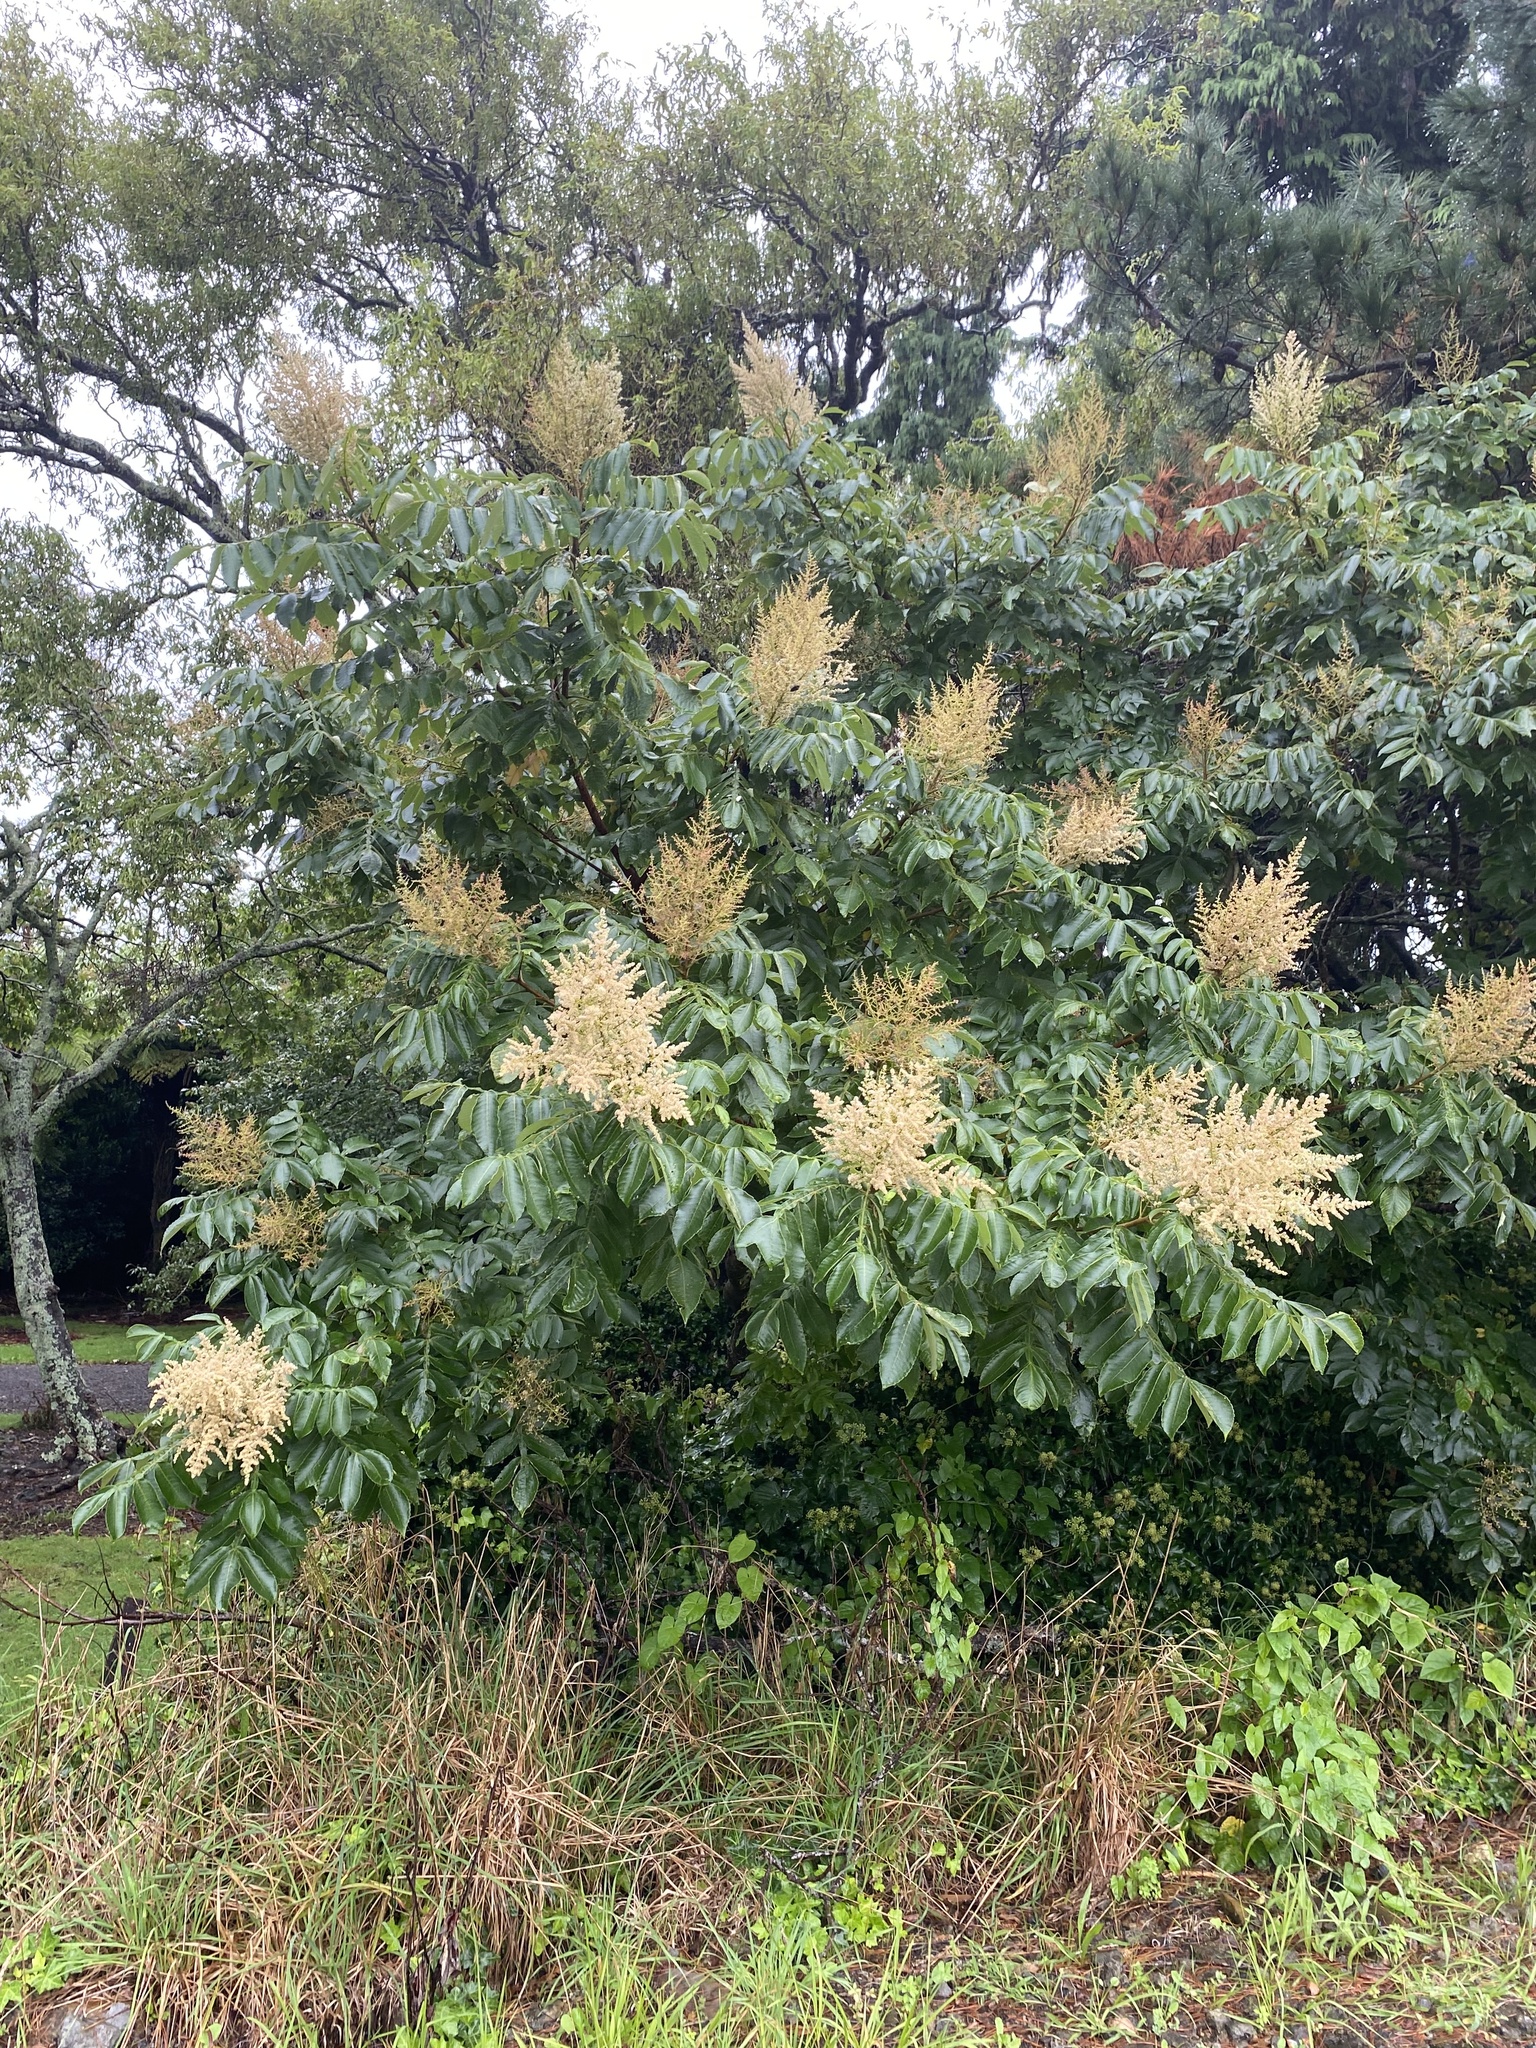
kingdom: Plantae
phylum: Tracheophyta
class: Magnoliopsida
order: Sapindales
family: Anacardiaceae
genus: Rhus
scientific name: Rhus chinensis
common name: Chinese gall
